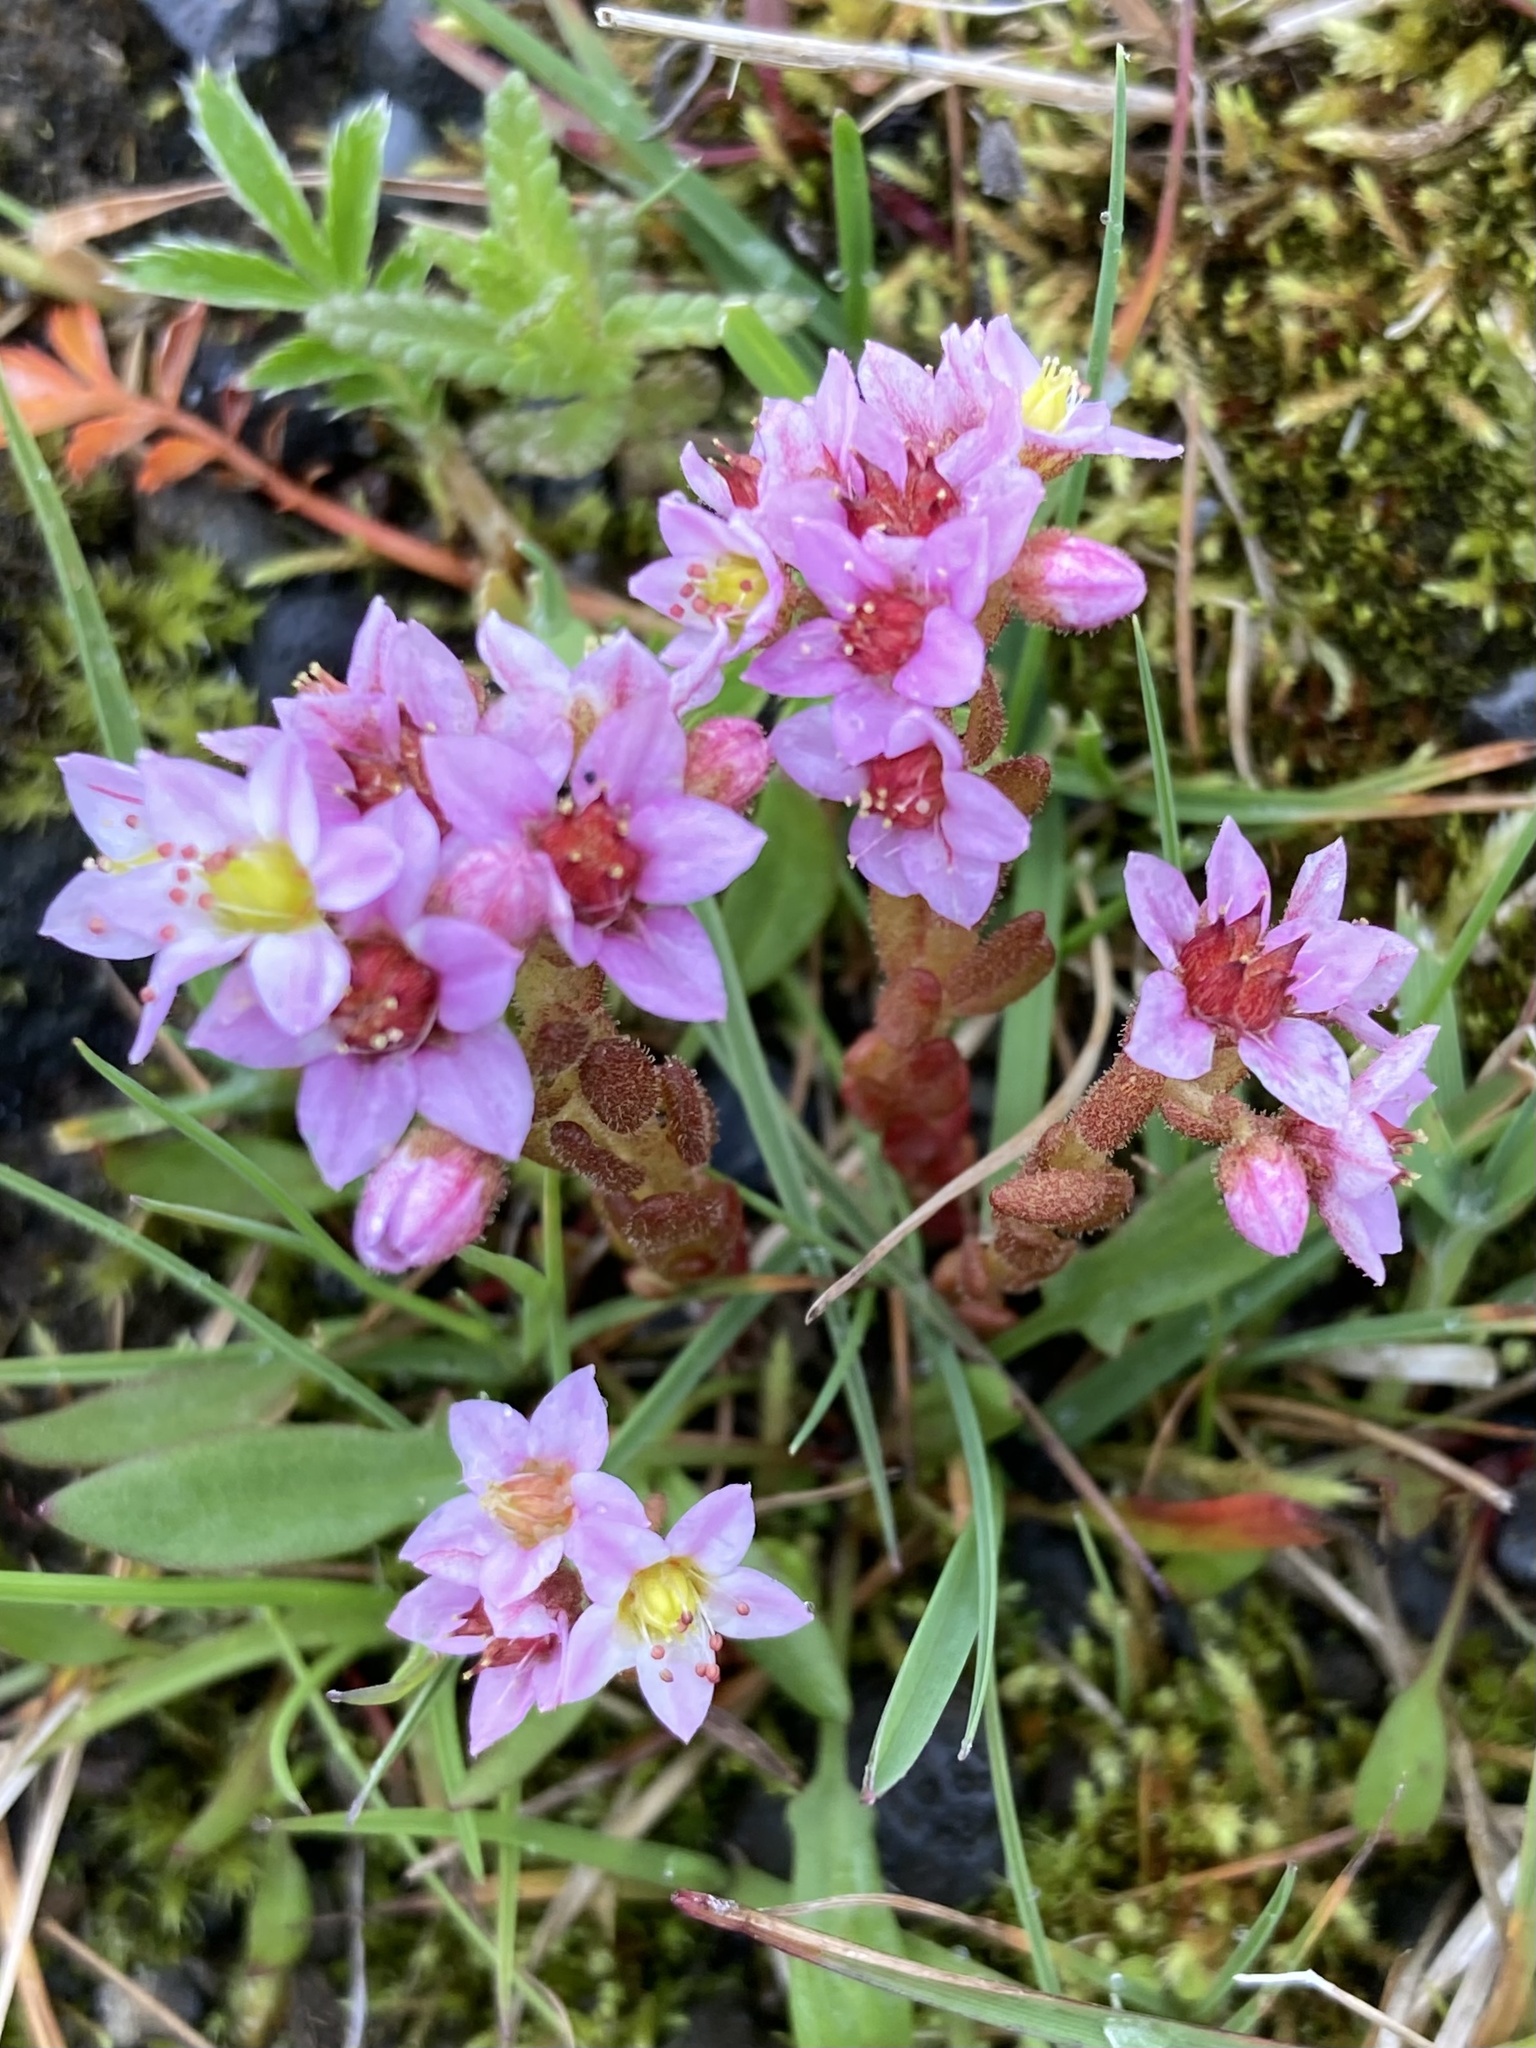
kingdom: Plantae
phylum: Tracheophyta
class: Magnoliopsida
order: Saxifragales
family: Crassulaceae
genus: Sedum
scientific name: Sedum villosum
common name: Hairy stonecrop
